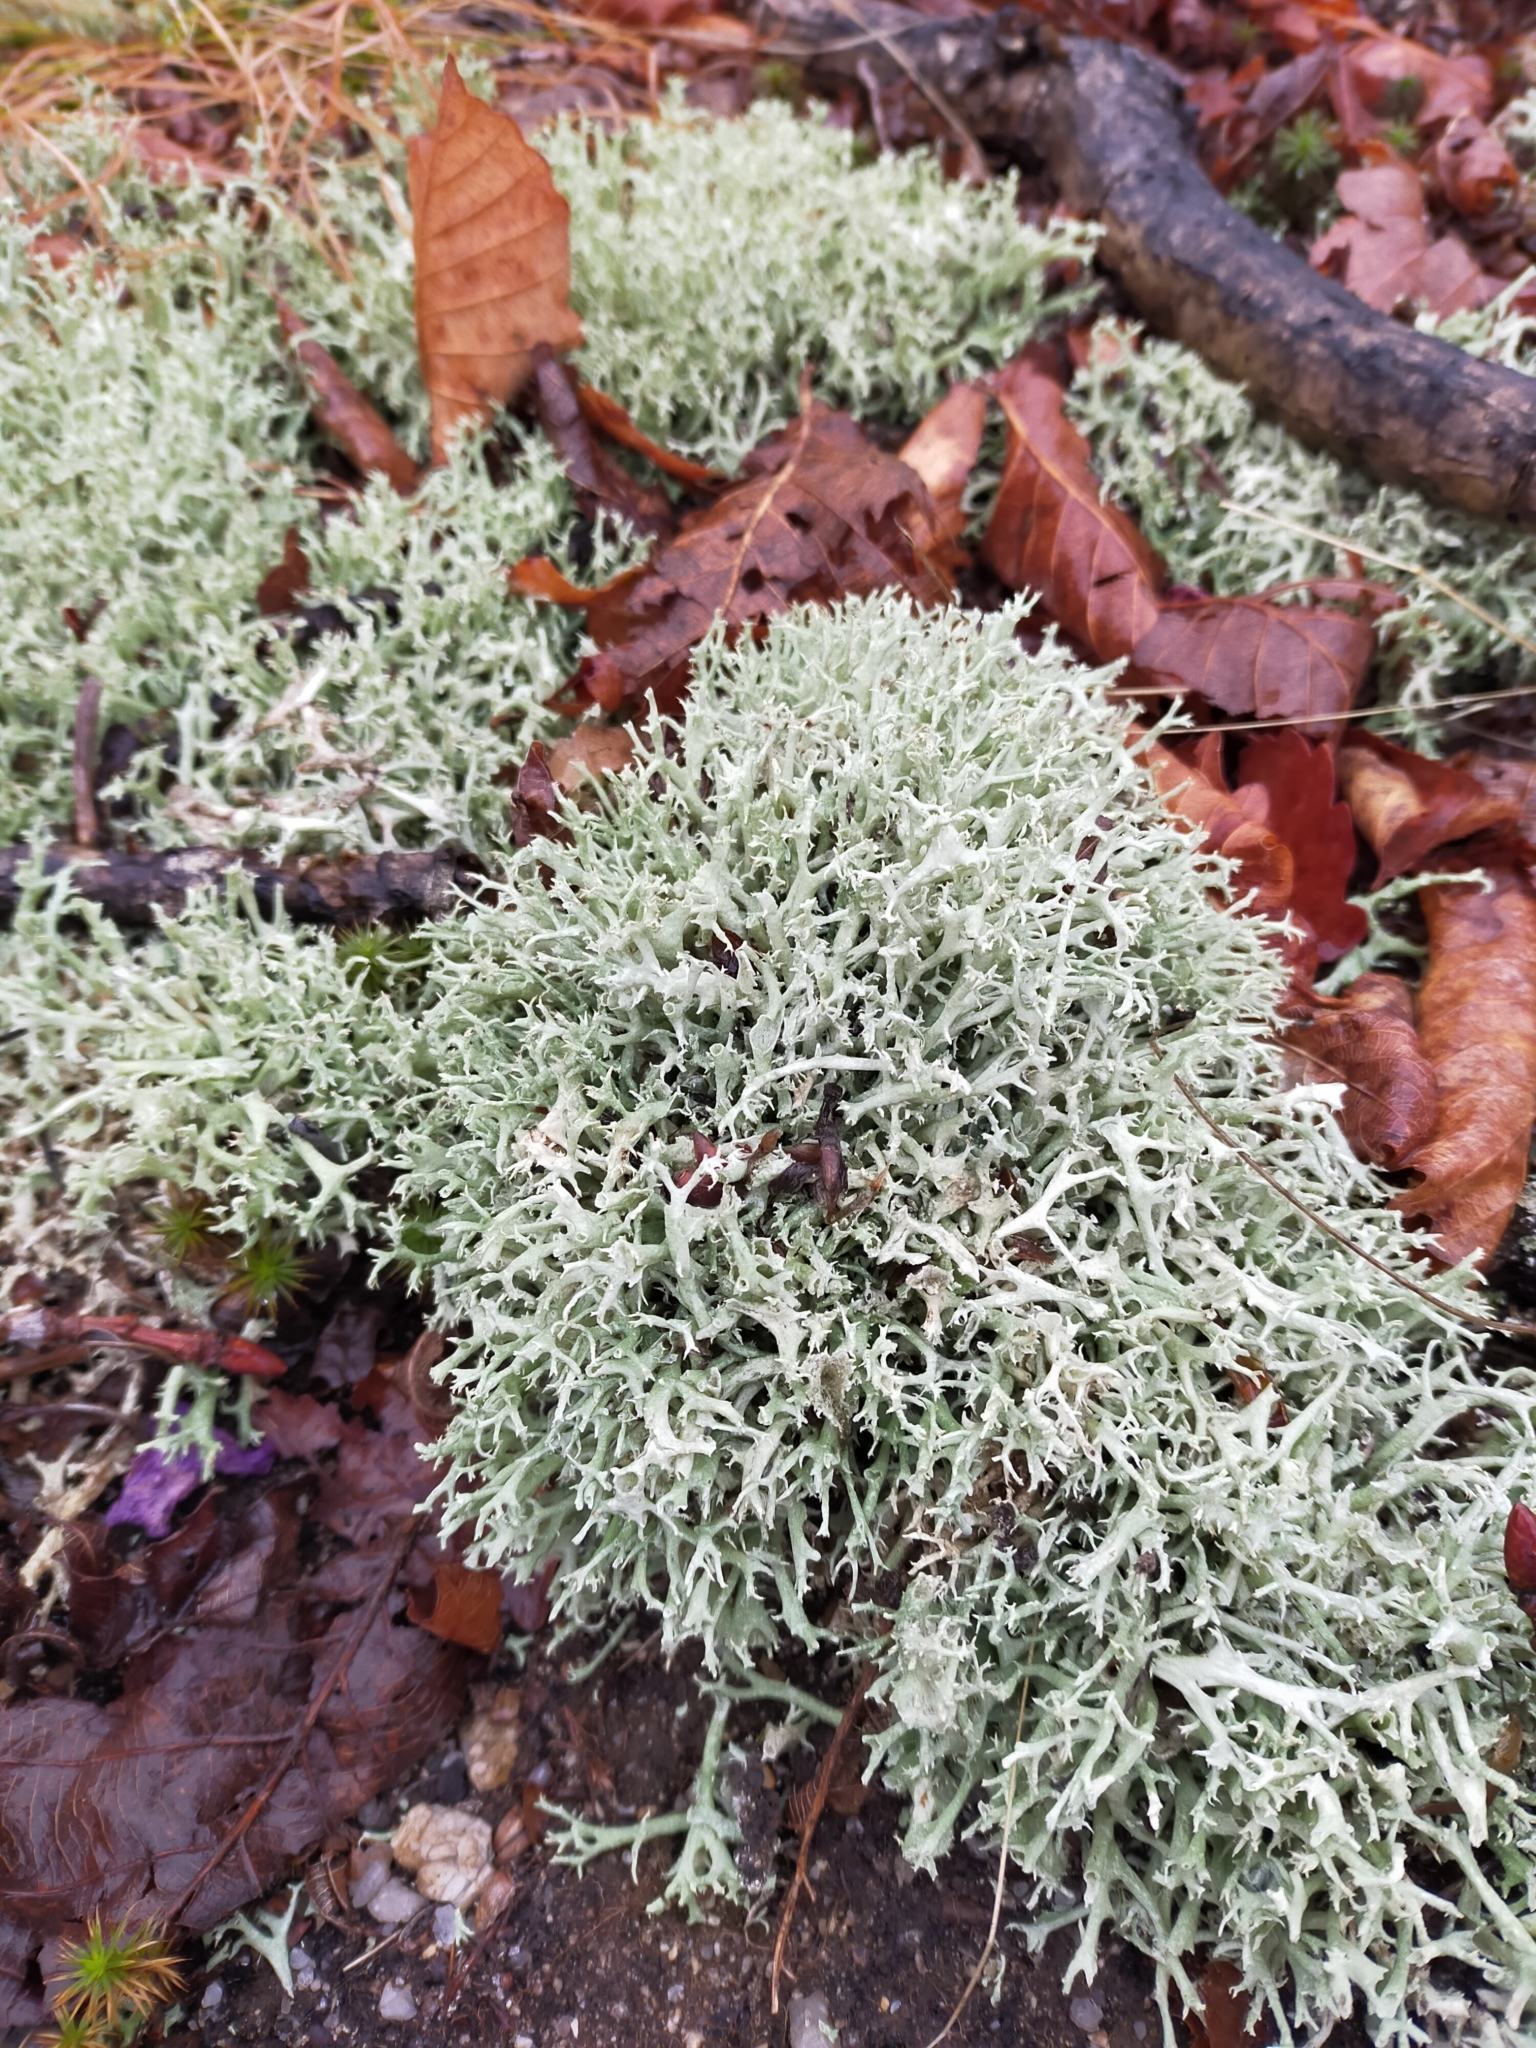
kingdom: Fungi
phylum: Ascomycota
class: Lecanoromycetes
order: Lecanorales
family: Cladoniaceae
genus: Cladonia
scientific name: Cladonia uncialis
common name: Thorn lichen
